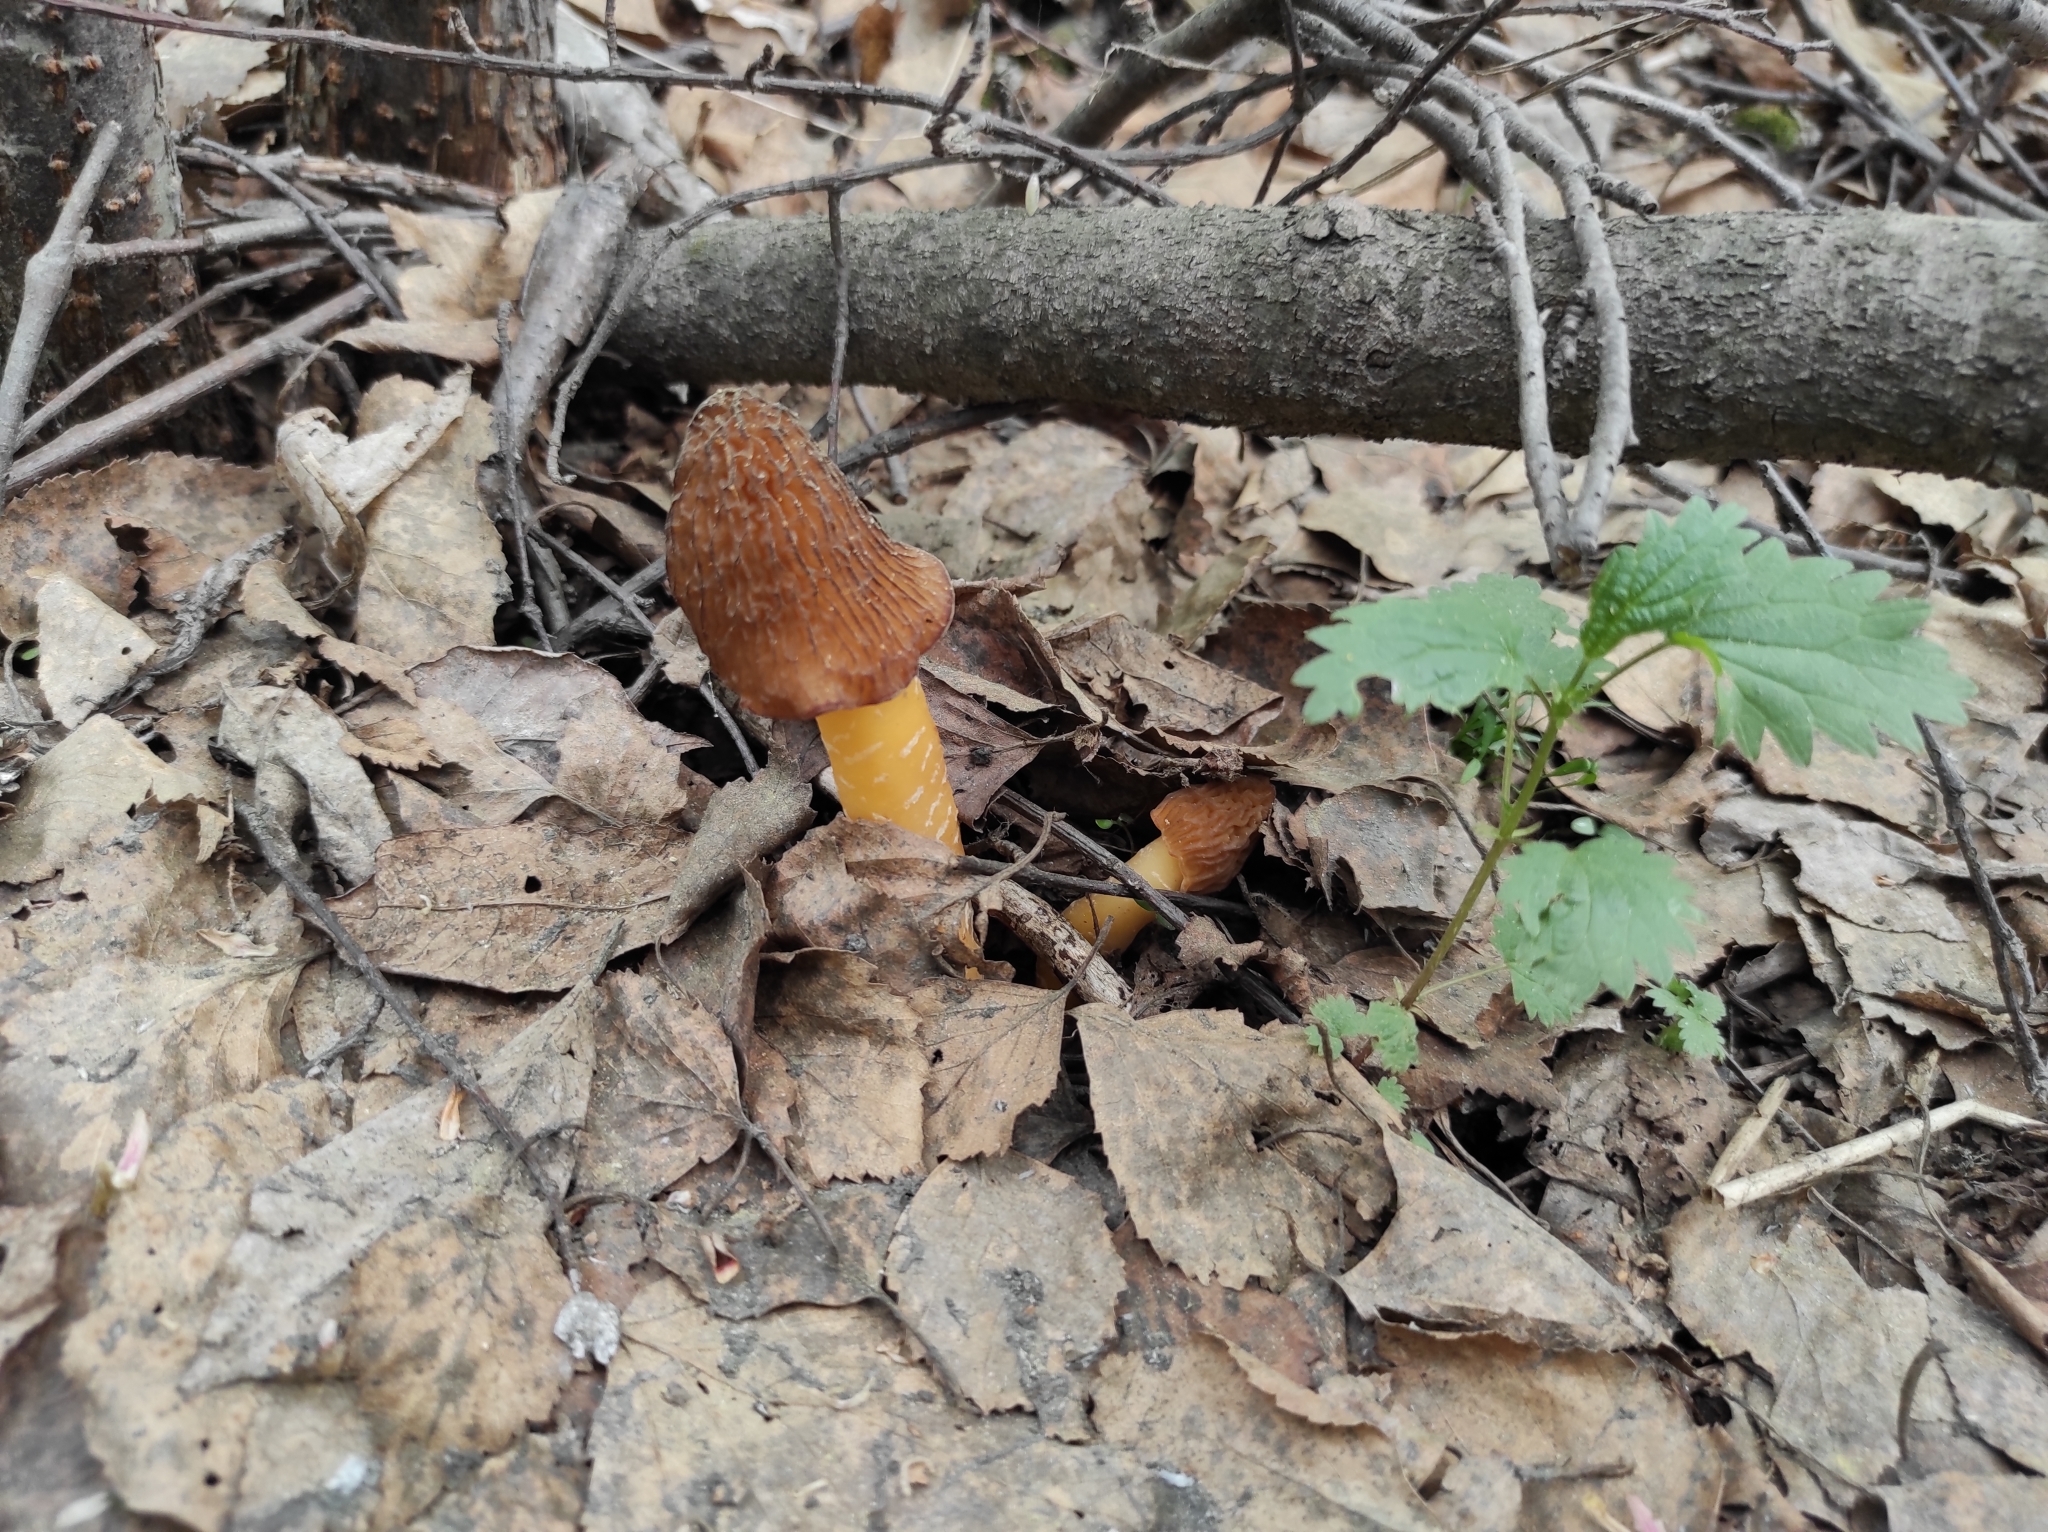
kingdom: Fungi
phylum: Ascomycota
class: Pezizomycetes
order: Pezizales
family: Morchellaceae
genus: Verpa
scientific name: Verpa bohemica
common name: Wrinkled thimble morel
